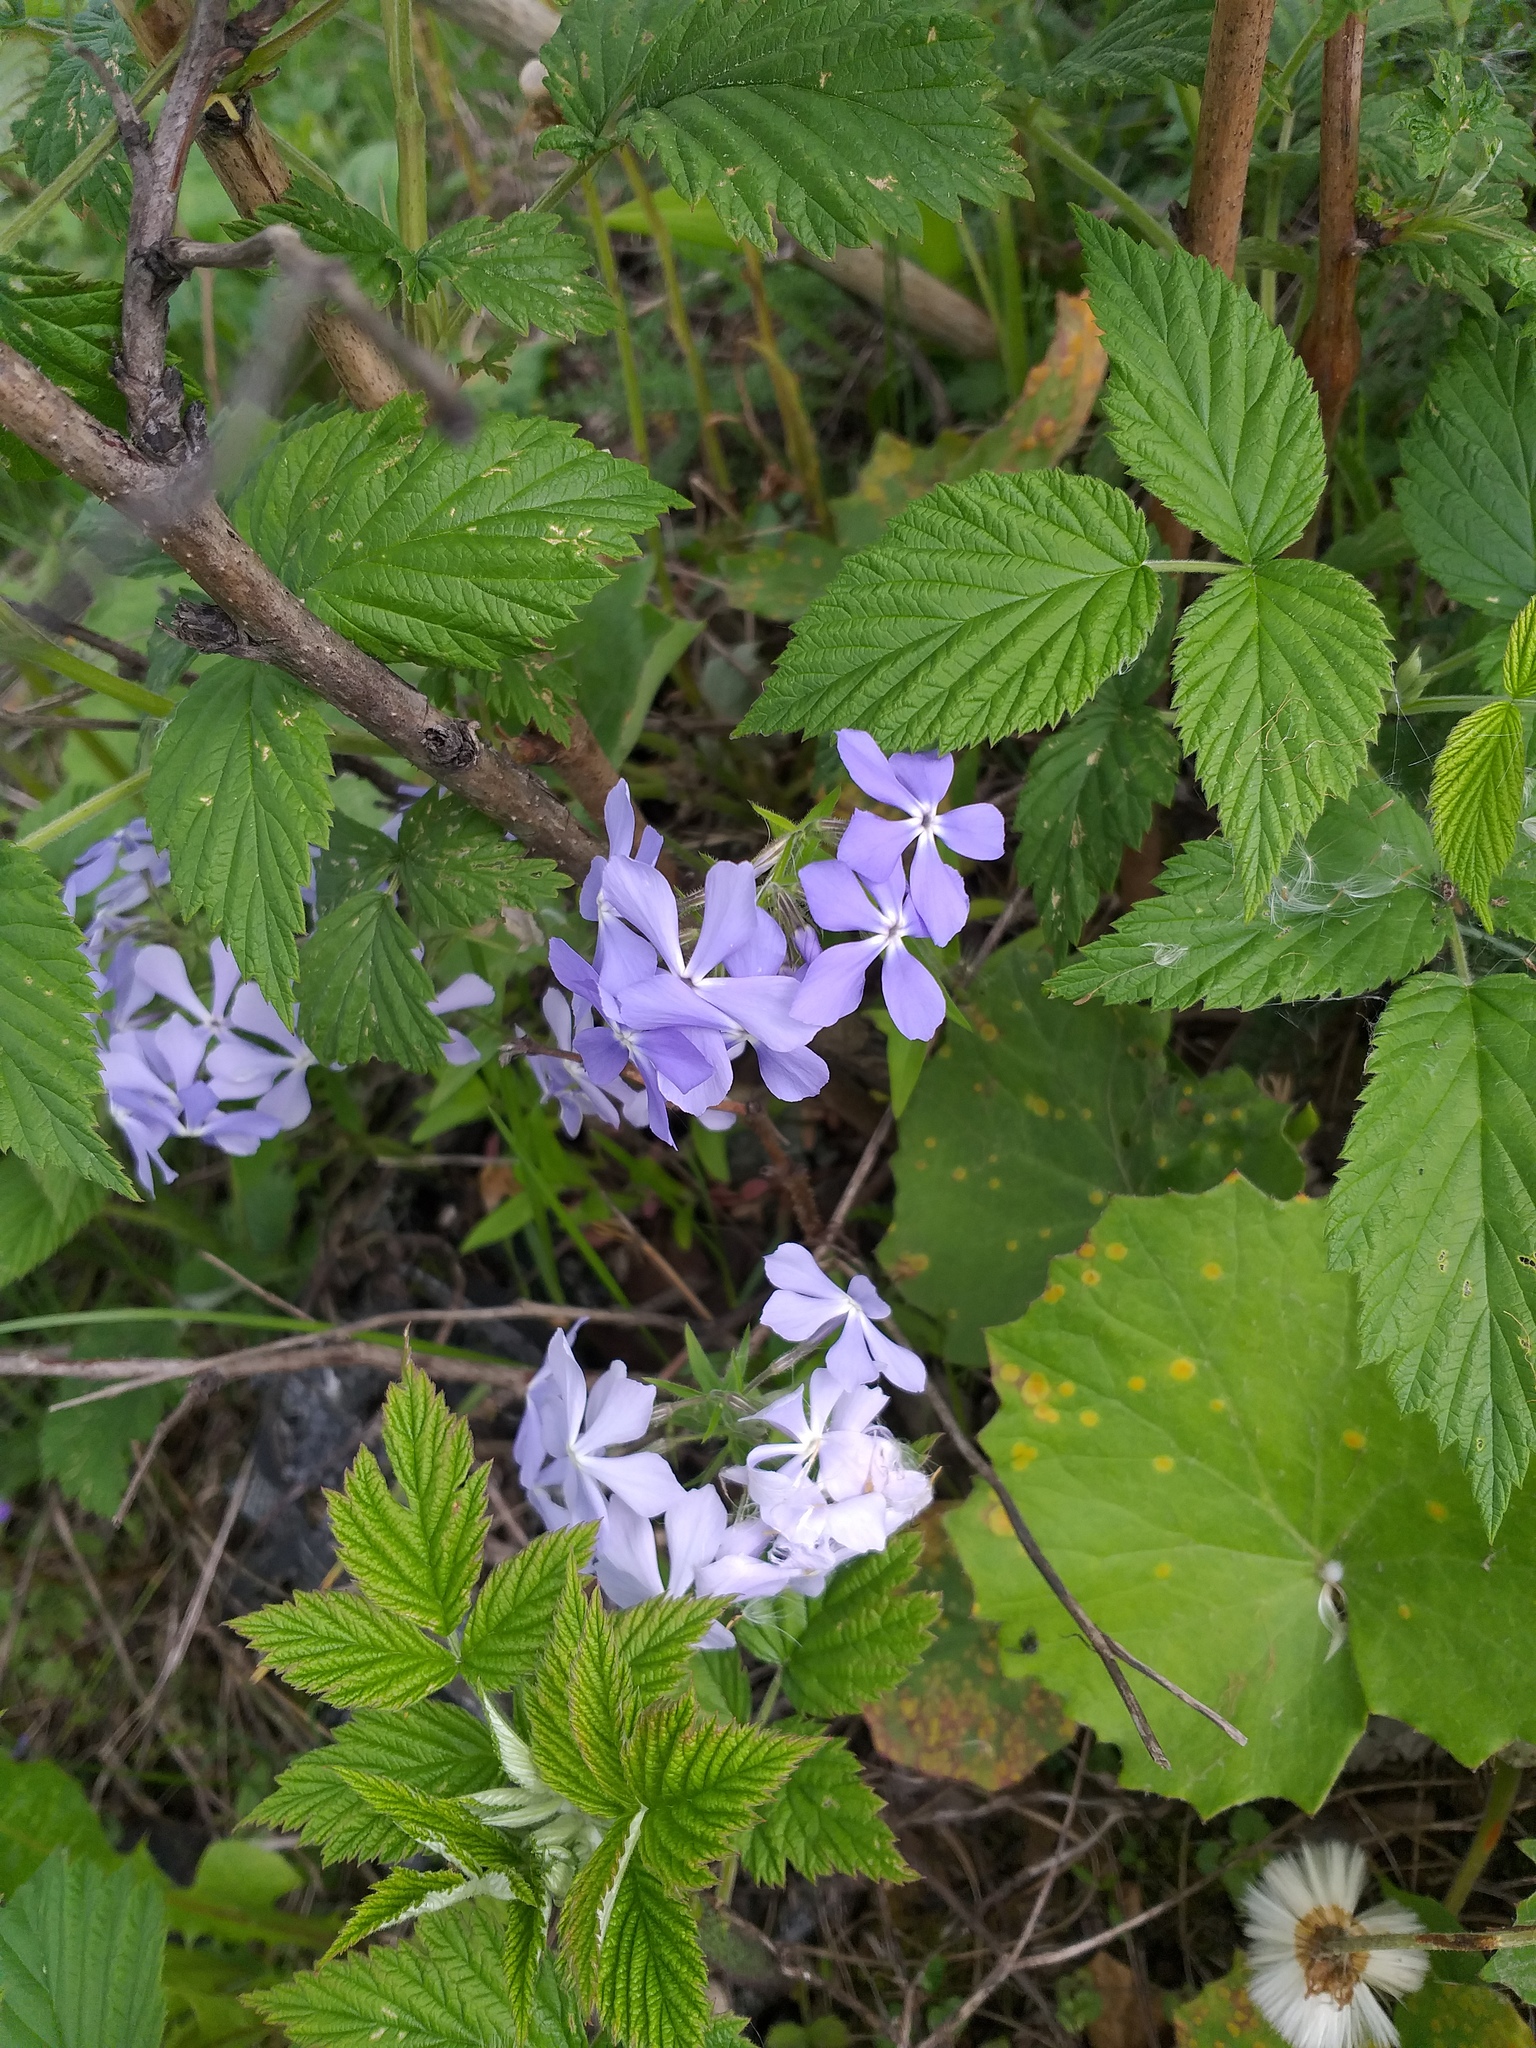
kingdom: Plantae
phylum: Tracheophyta
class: Magnoliopsida
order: Ericales
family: Polemoniaceae
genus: Phlox
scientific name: Phlox divaricata
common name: Blue phlox
